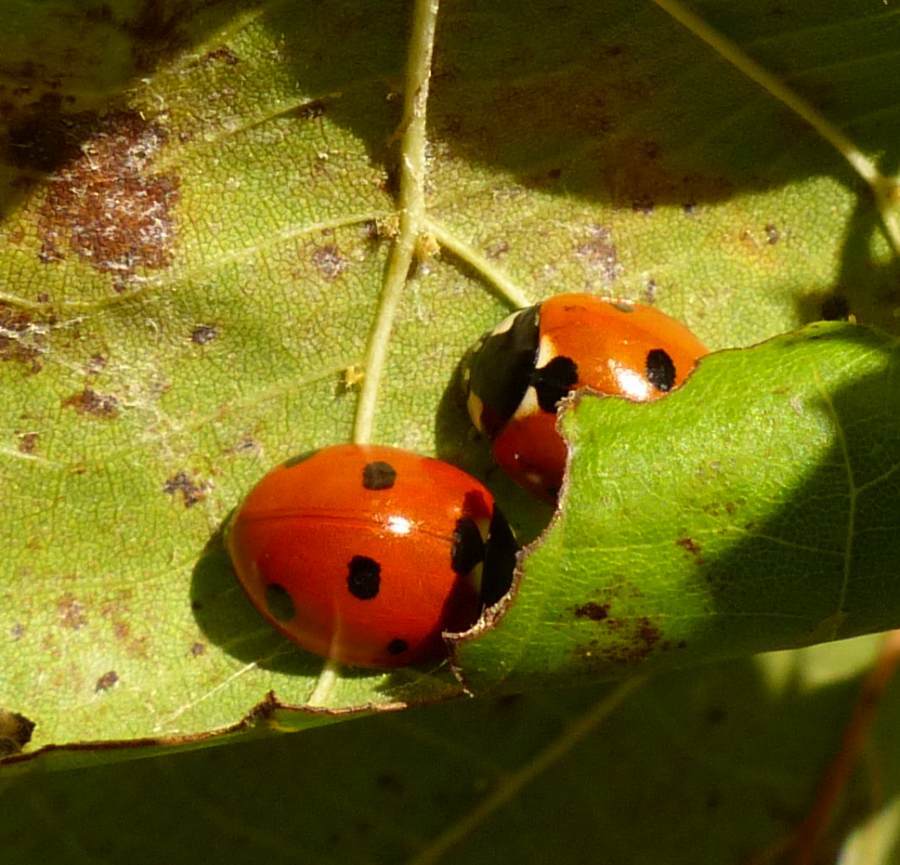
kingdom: Animalia
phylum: Arthropoda
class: Insecta
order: Coleoptera
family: Coccinellidae
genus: Coccinella
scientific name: Coccinella septempunctata
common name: Sevenspotted lady beetle
